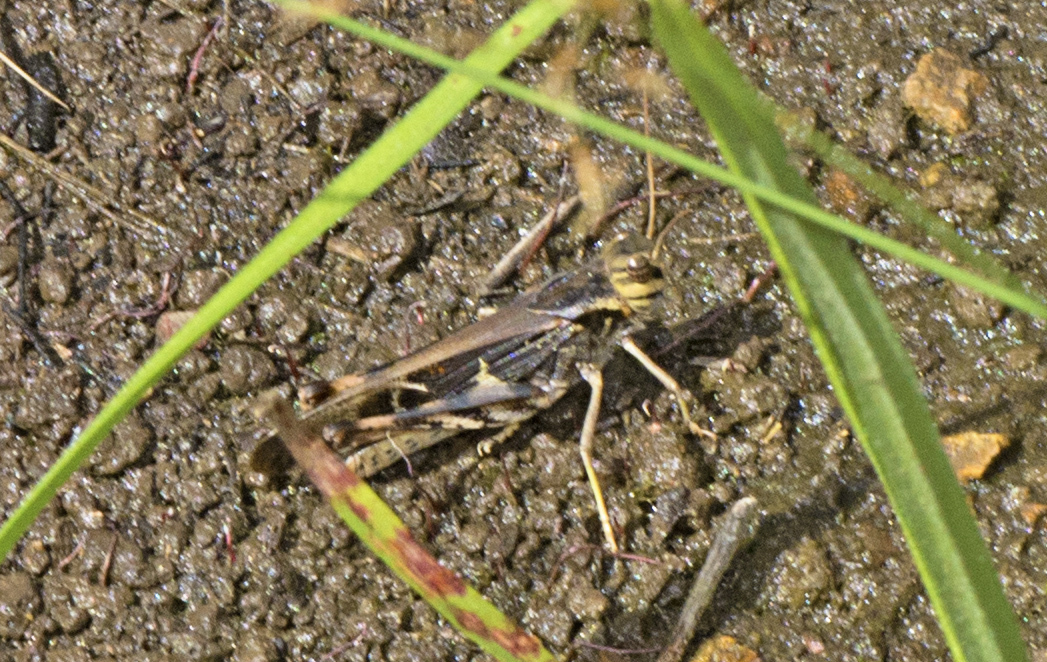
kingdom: Animalia
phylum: Arthropoda
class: Insecta
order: Orthoptera
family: Acrididae
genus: Gastrimargus
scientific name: Gastrimargus musicus
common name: Yellow-winged locust
